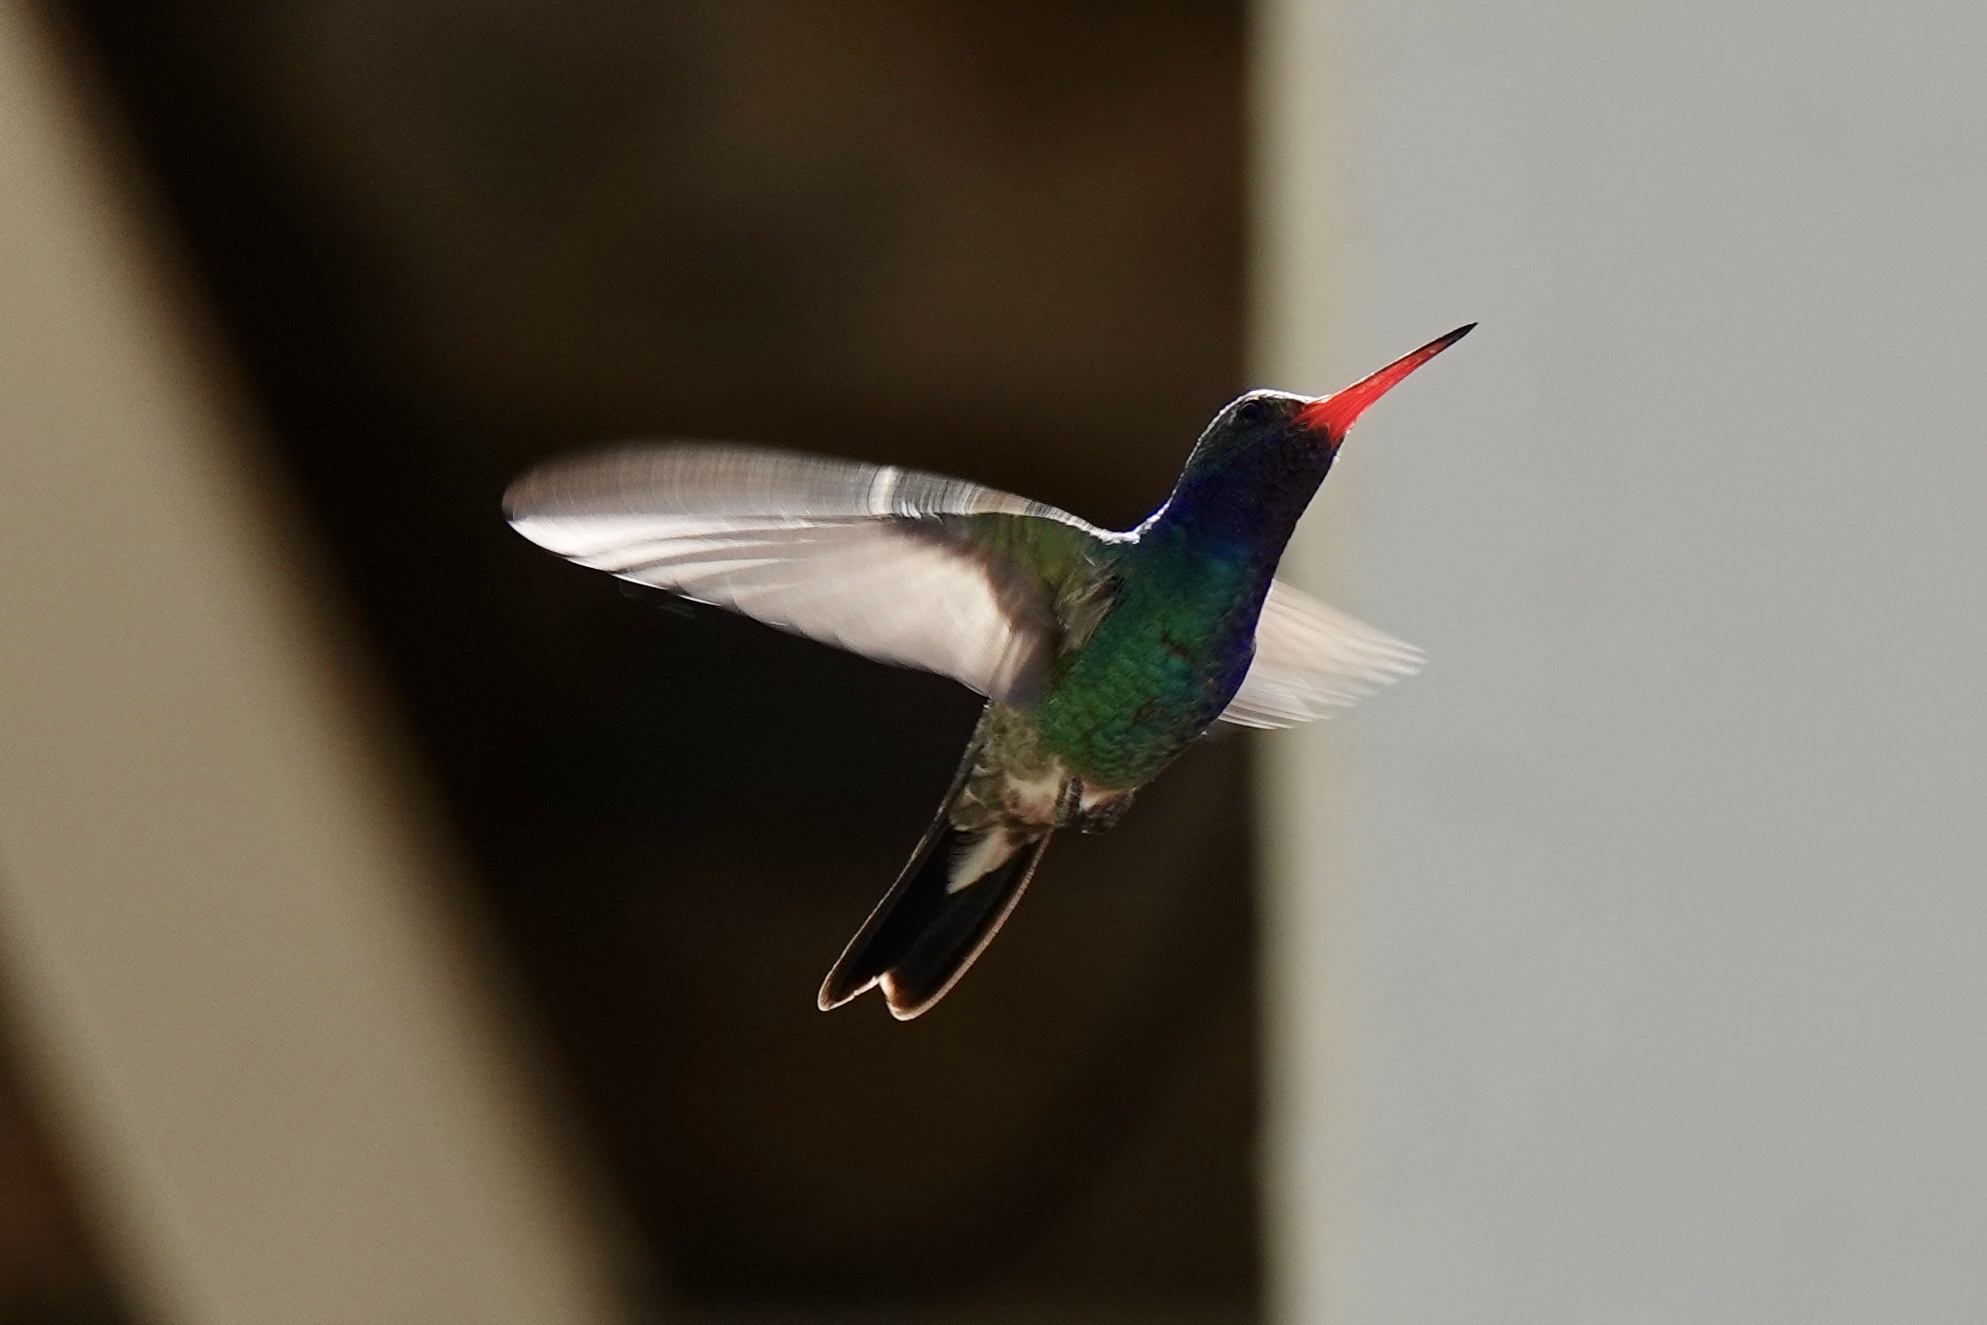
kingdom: Animalia
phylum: Chordata
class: Aves
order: Apodiformes
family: Trochilidae
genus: Cynanthus
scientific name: Cynanthus latirostris
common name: Broad-billed hummingbird
